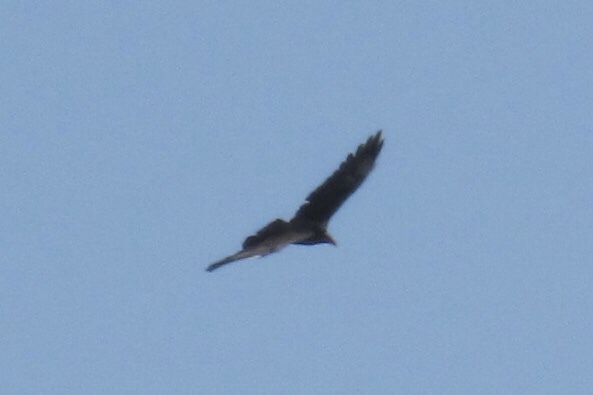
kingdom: Animalia
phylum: Chordata
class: Aves
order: Accipitriformes
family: Cathartidae
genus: Cathartes
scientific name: Cathartes aura
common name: Turkey vulture
